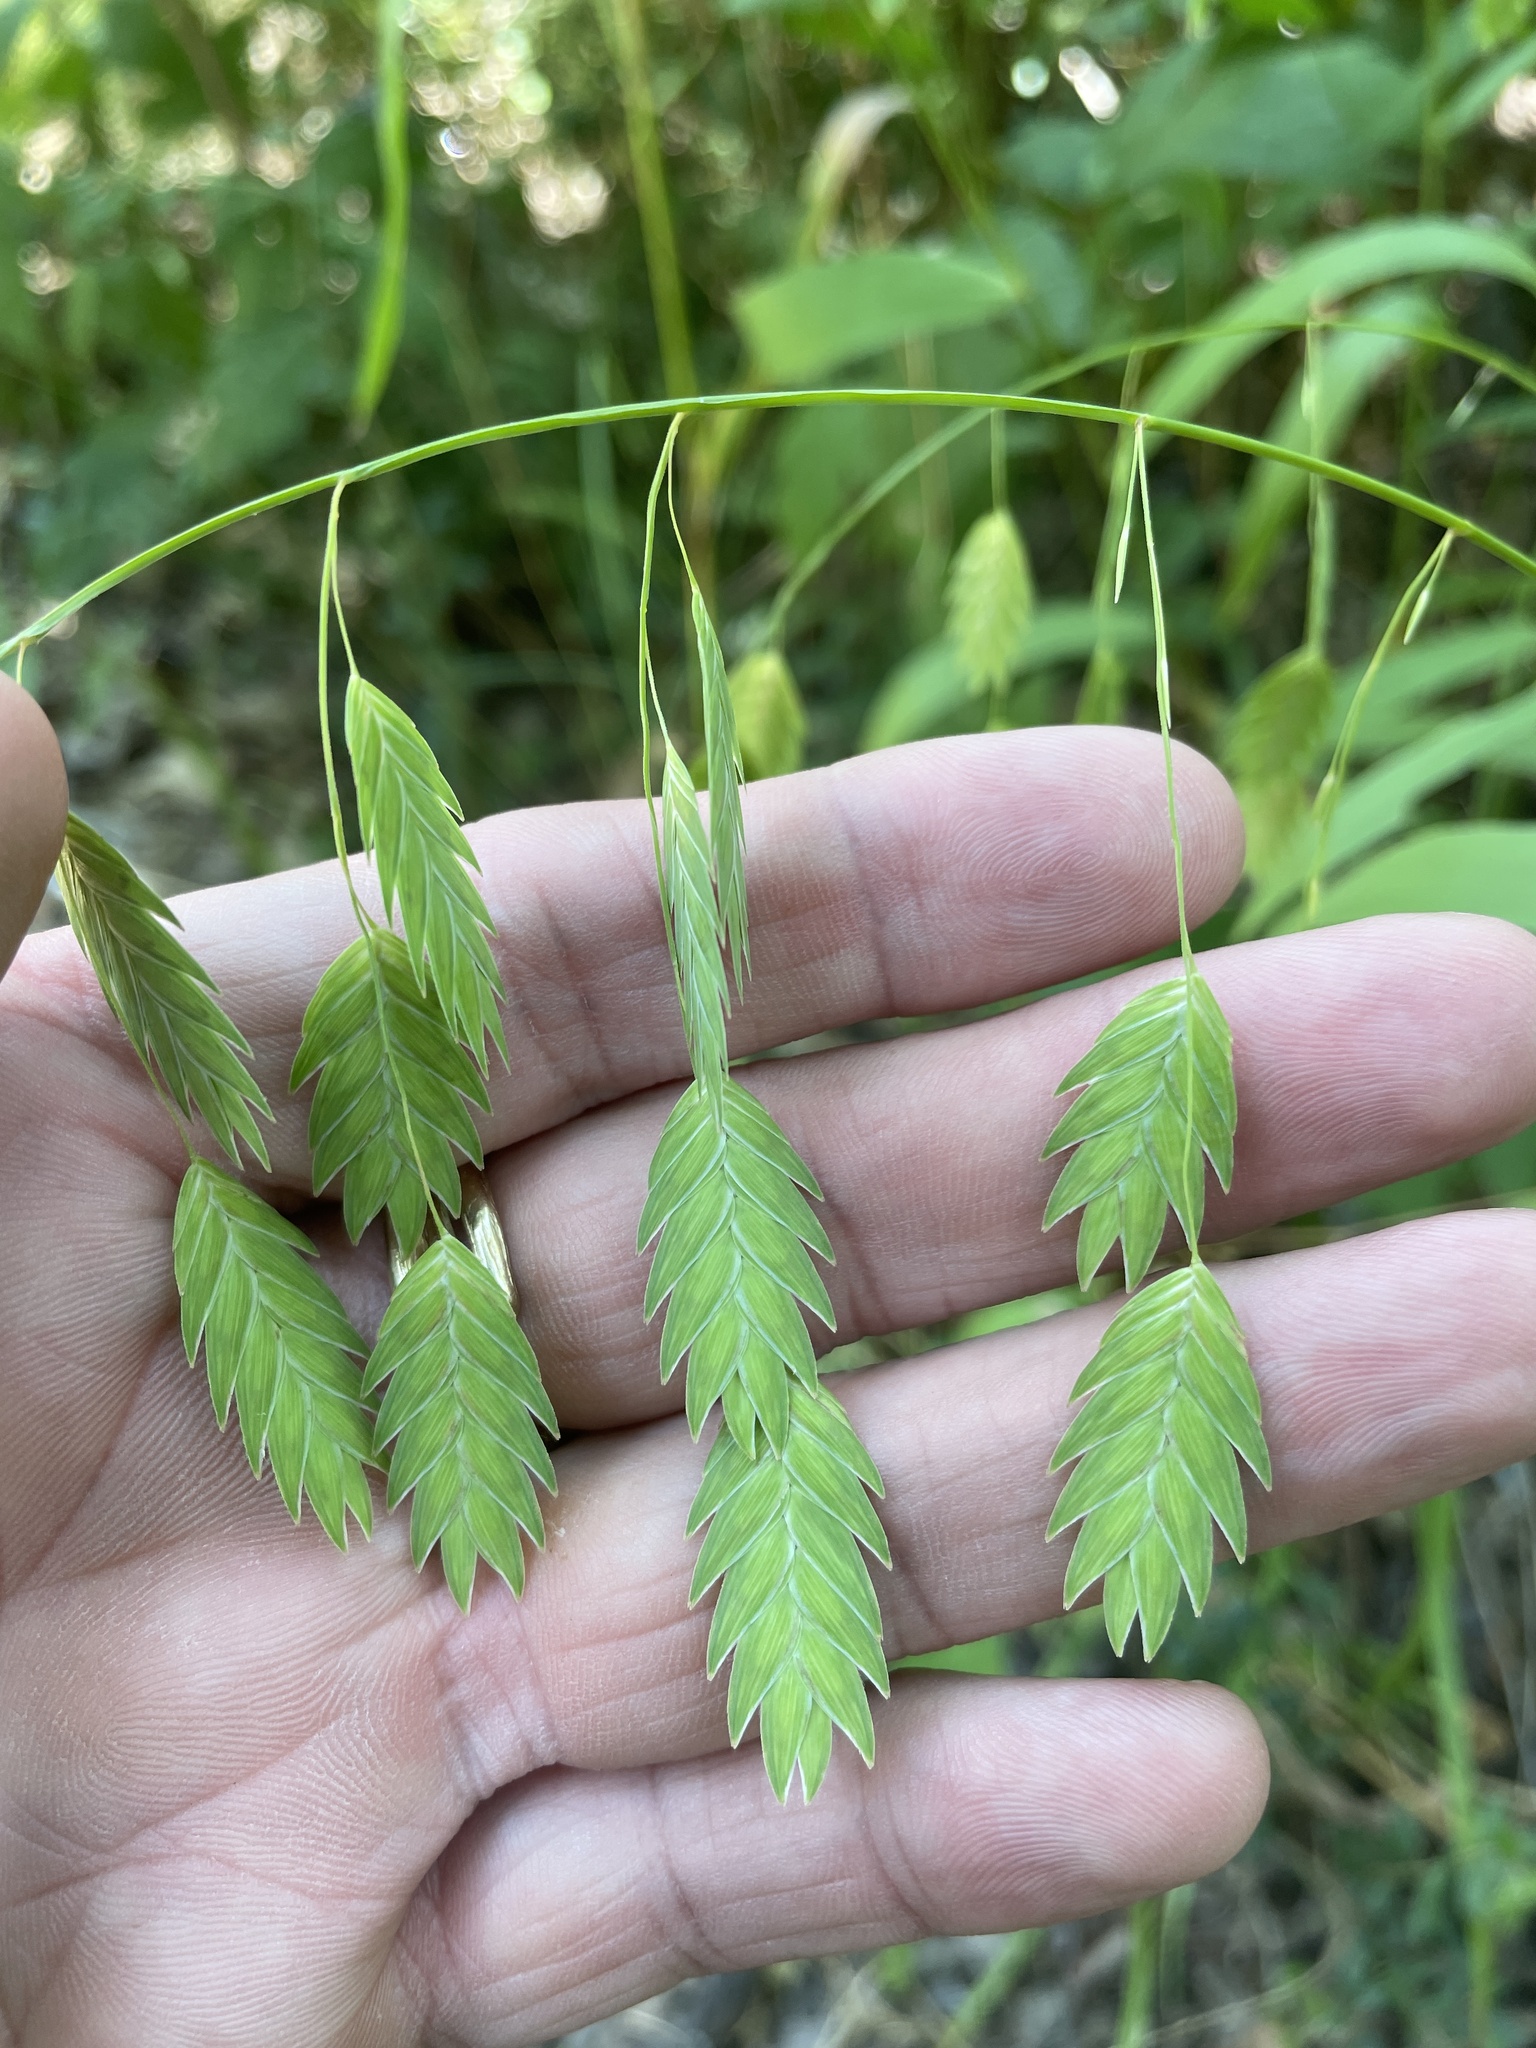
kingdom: Plantae
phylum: Tracheophyta
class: Liliopsida
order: Poales
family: Poaceae
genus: Chasmanthium
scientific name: Chasmanthium latifolium
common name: Broad-leaved chasmanthium
